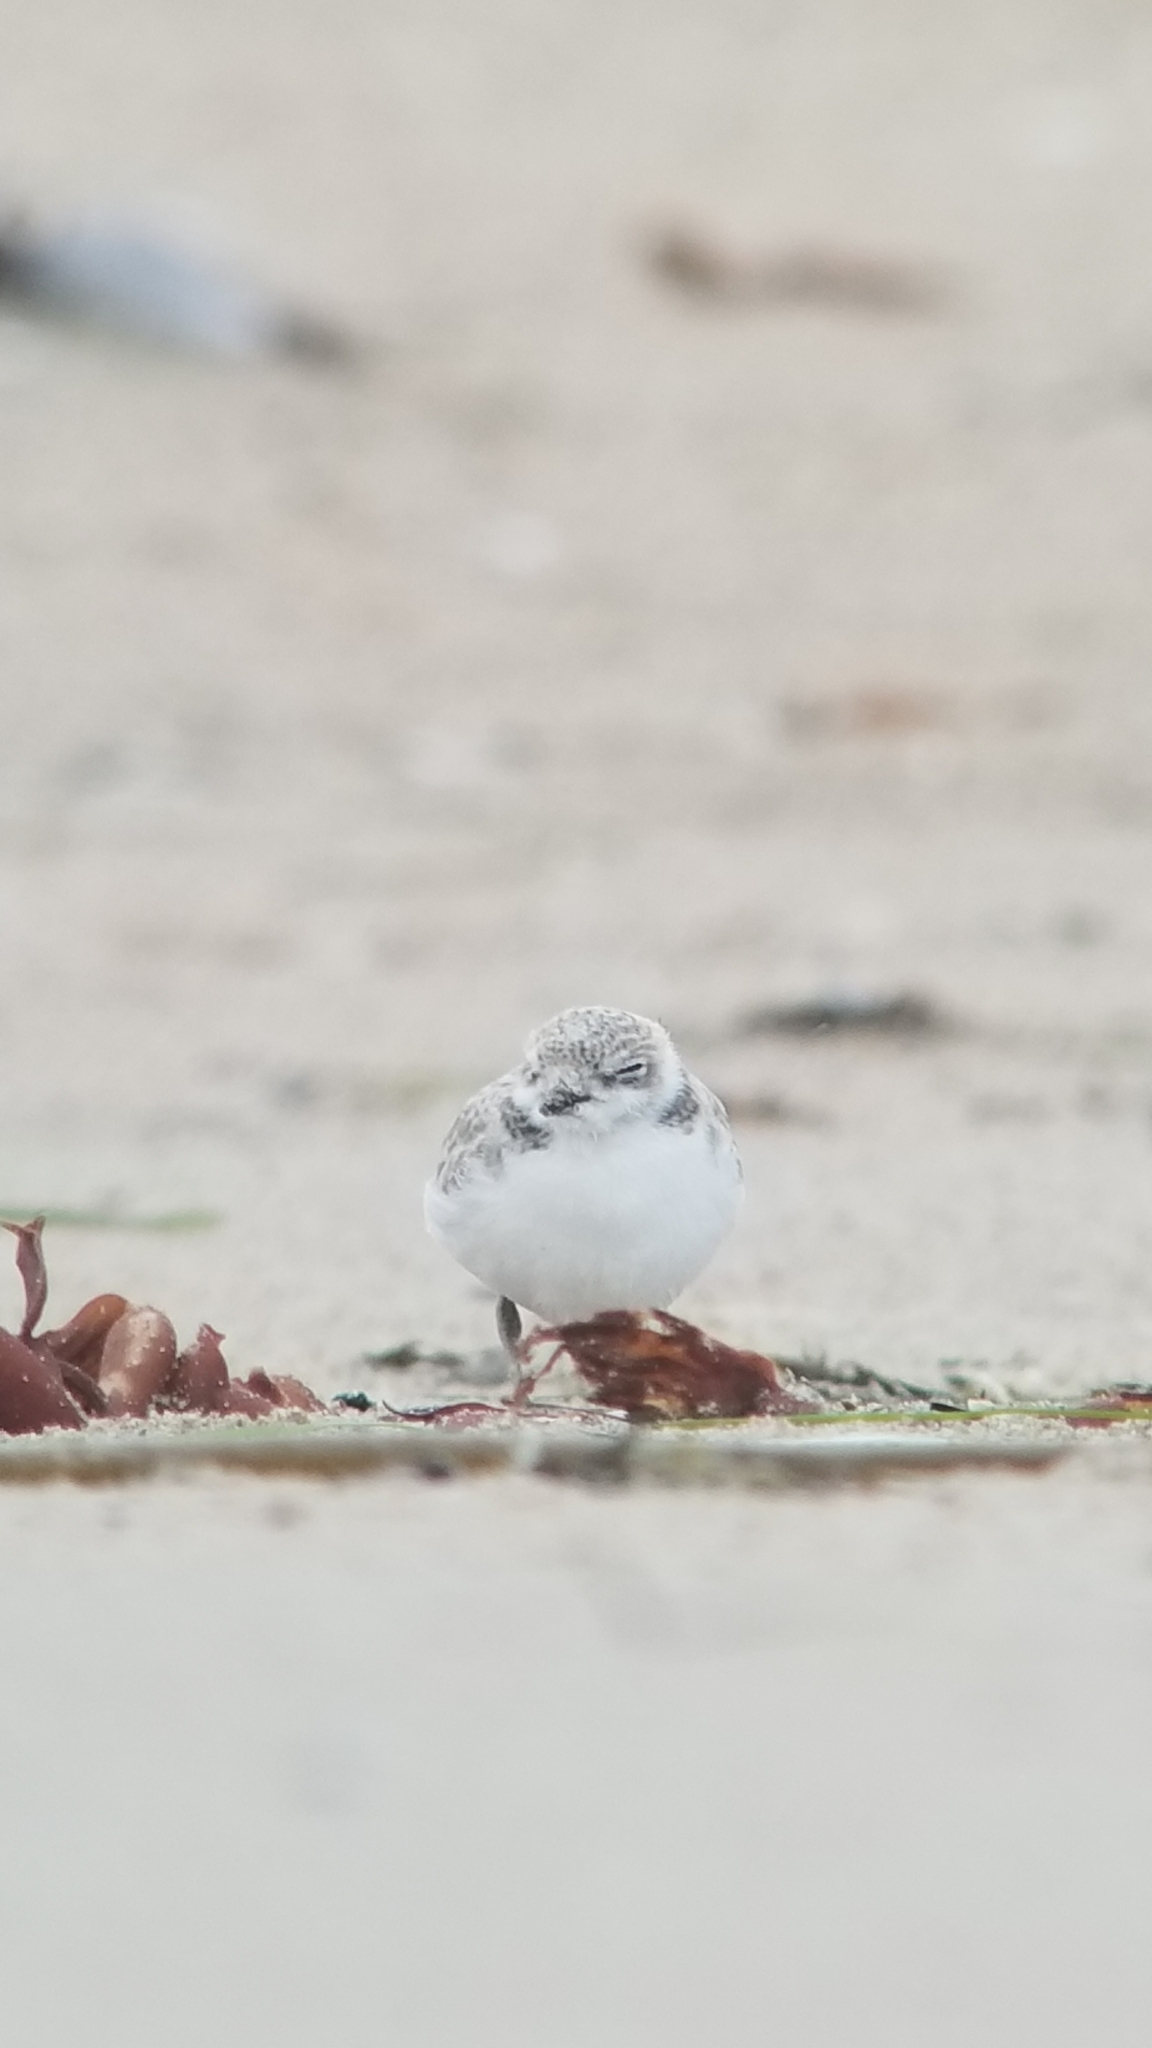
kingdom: Animalia
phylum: Chordata
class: Aves
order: Charadriiformes
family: Charadriidae
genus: Anarhynchus
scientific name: Anarhynchus
